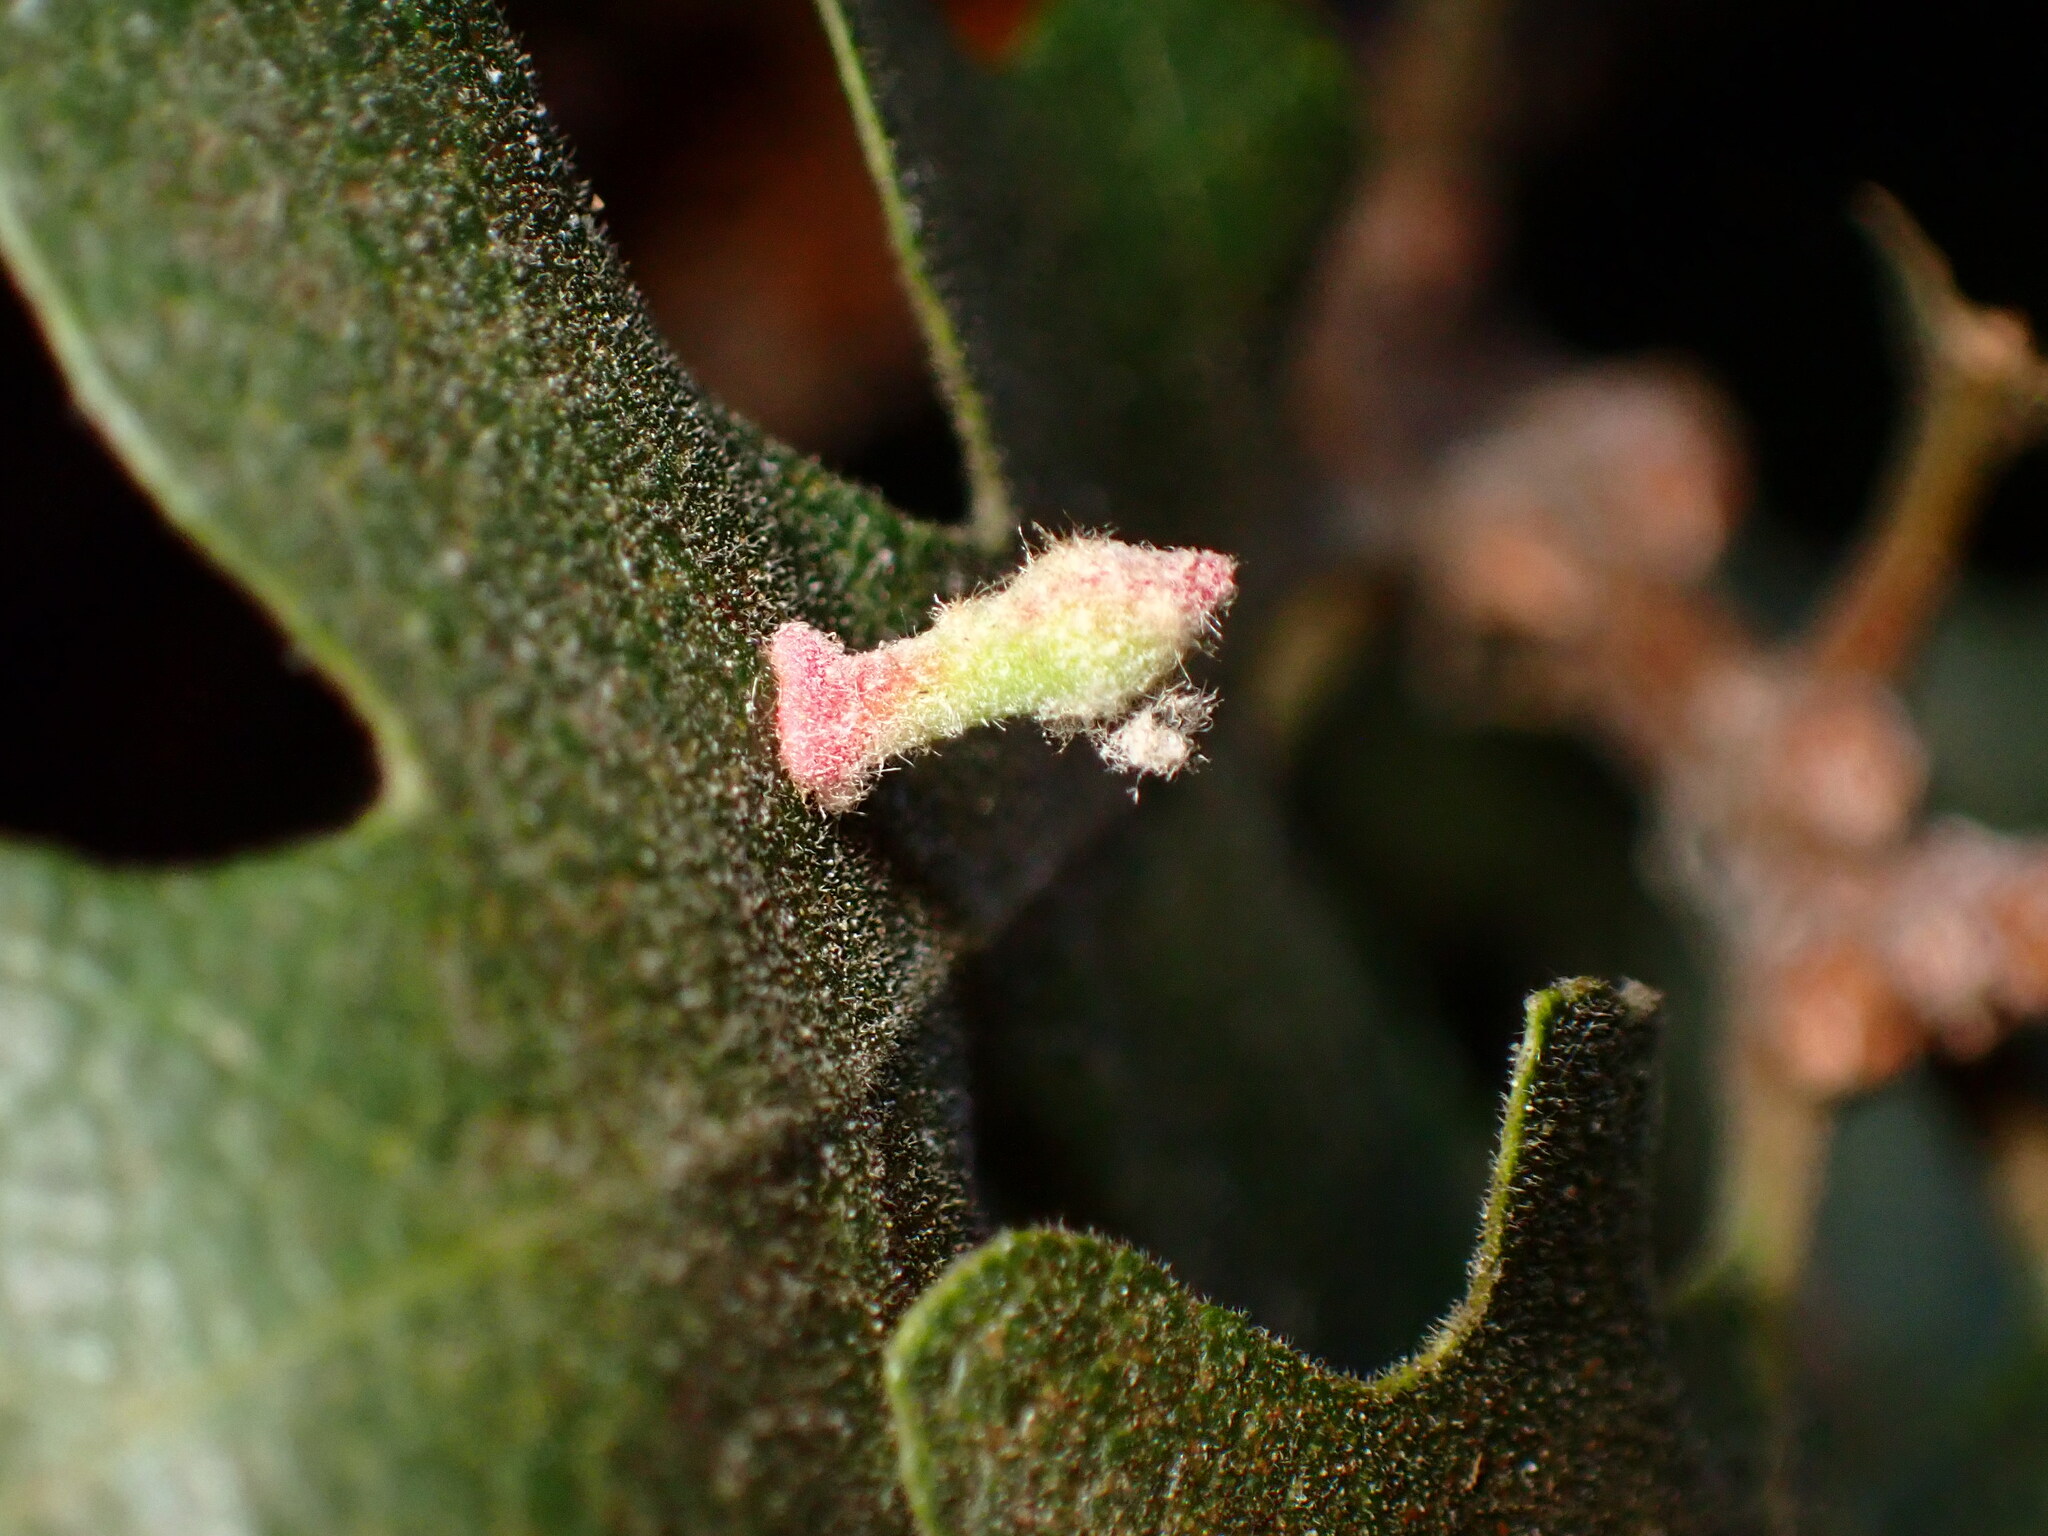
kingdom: Animalia
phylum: Arthropoda
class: Insecta
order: Hymenoptera
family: Cynipidae
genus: Atrusca
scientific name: Atrusca
